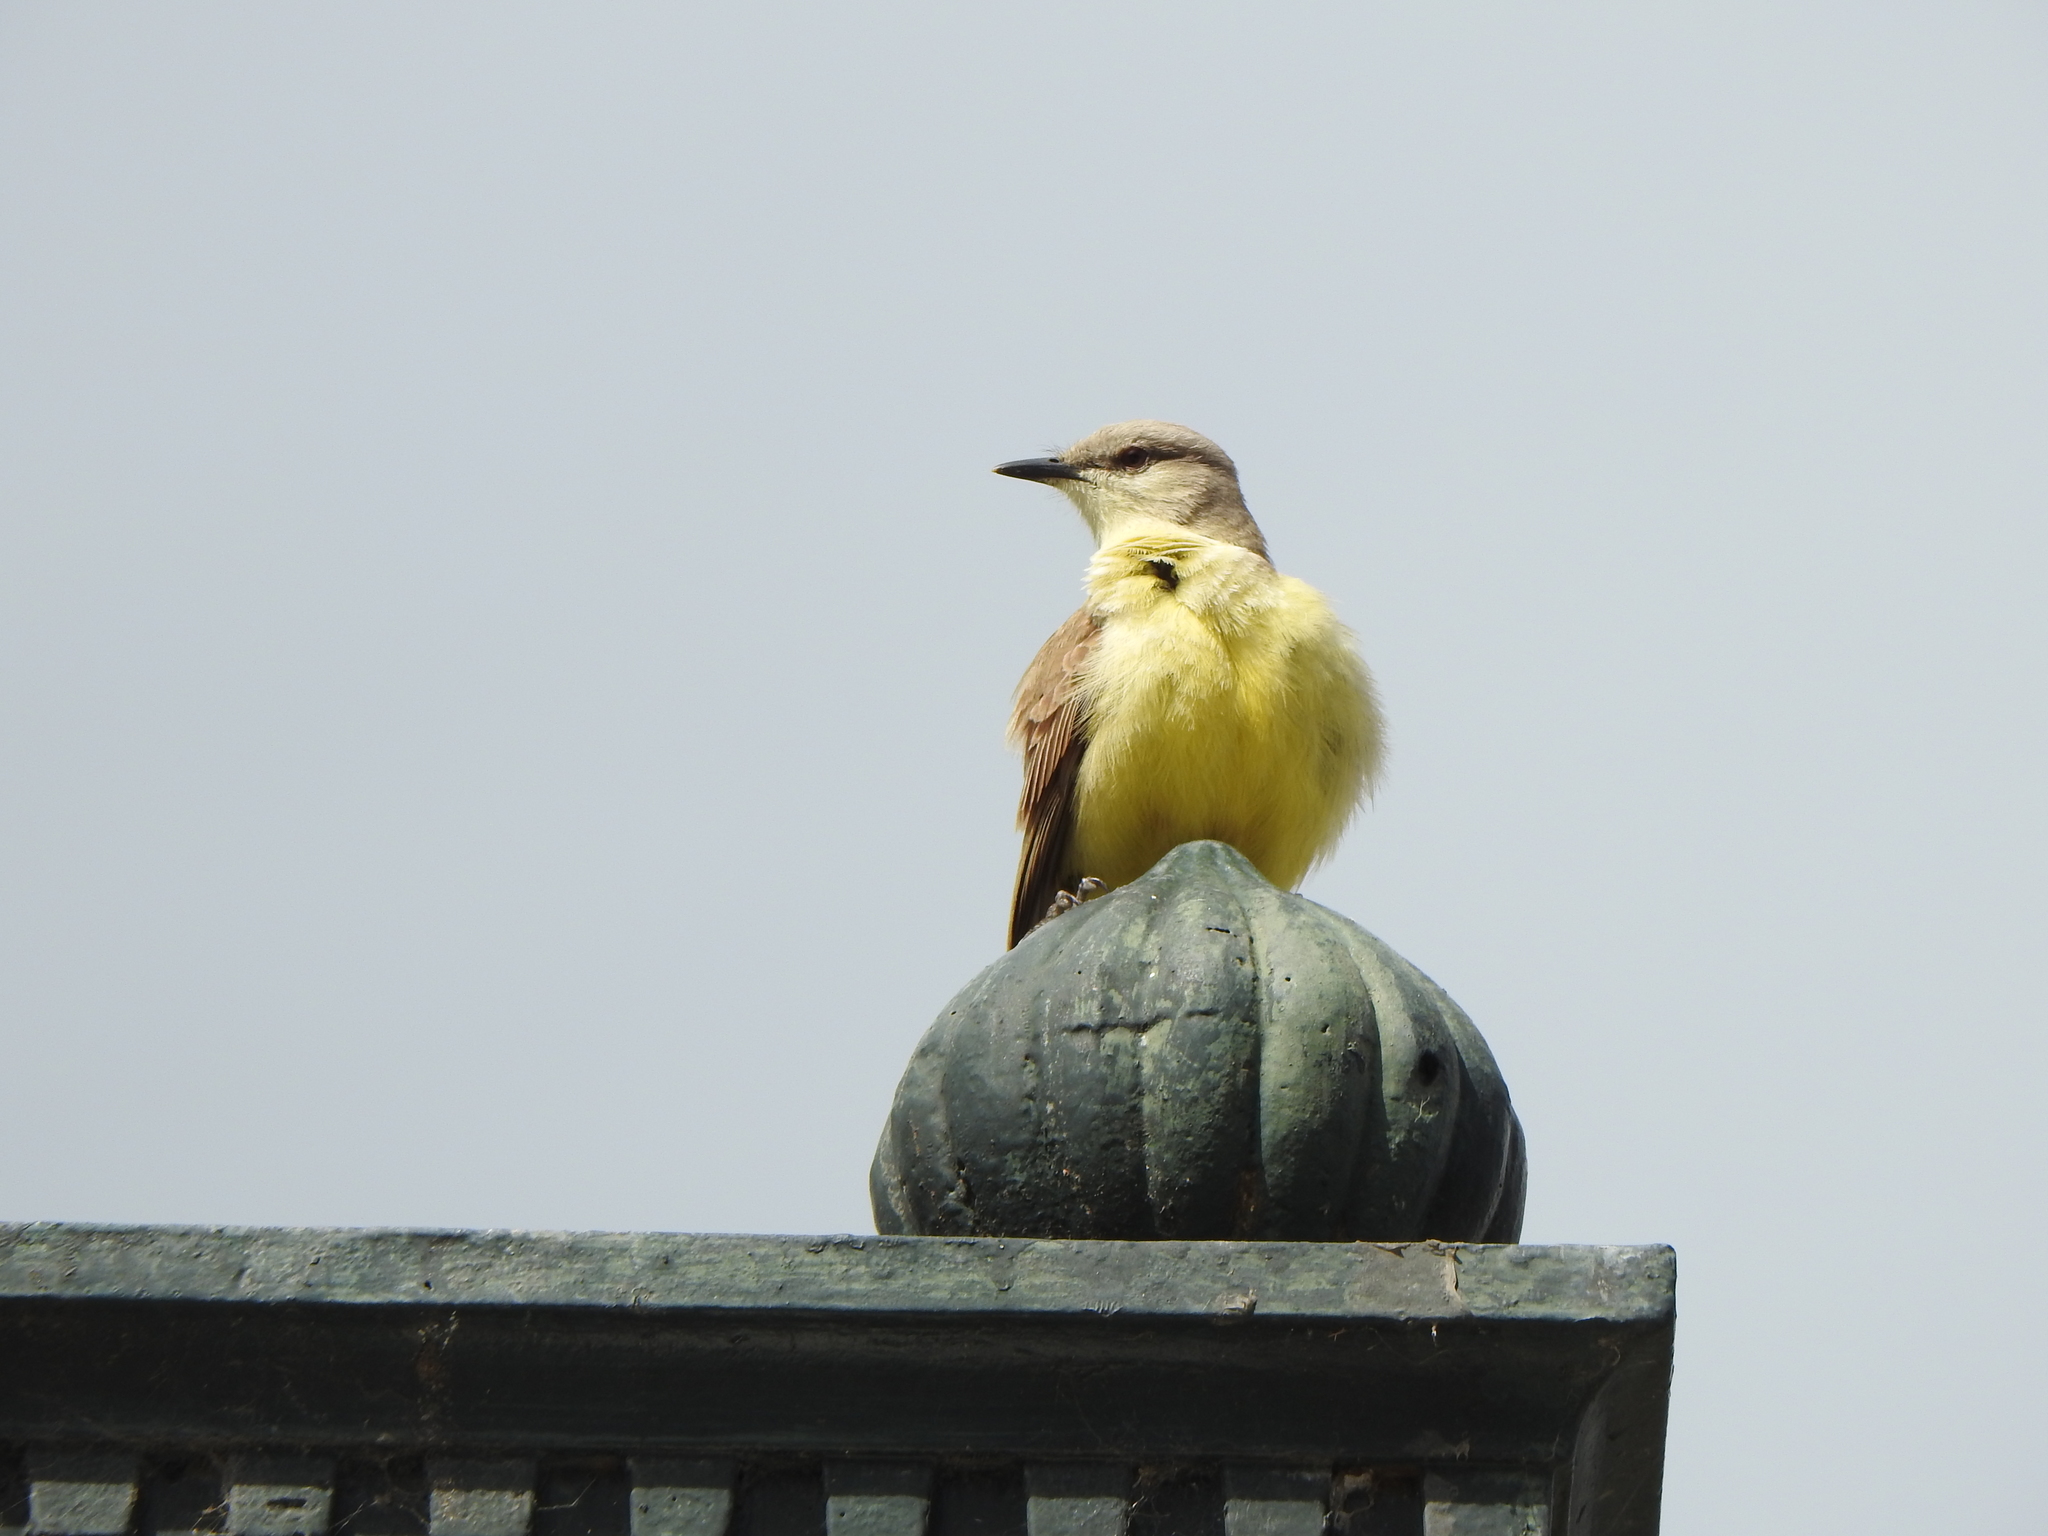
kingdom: Animalia
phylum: Chordata
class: Aves
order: Passeriformes
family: Tyrannidae
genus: Machetornis
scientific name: Machetornis rixosa
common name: Cattle tyrant
